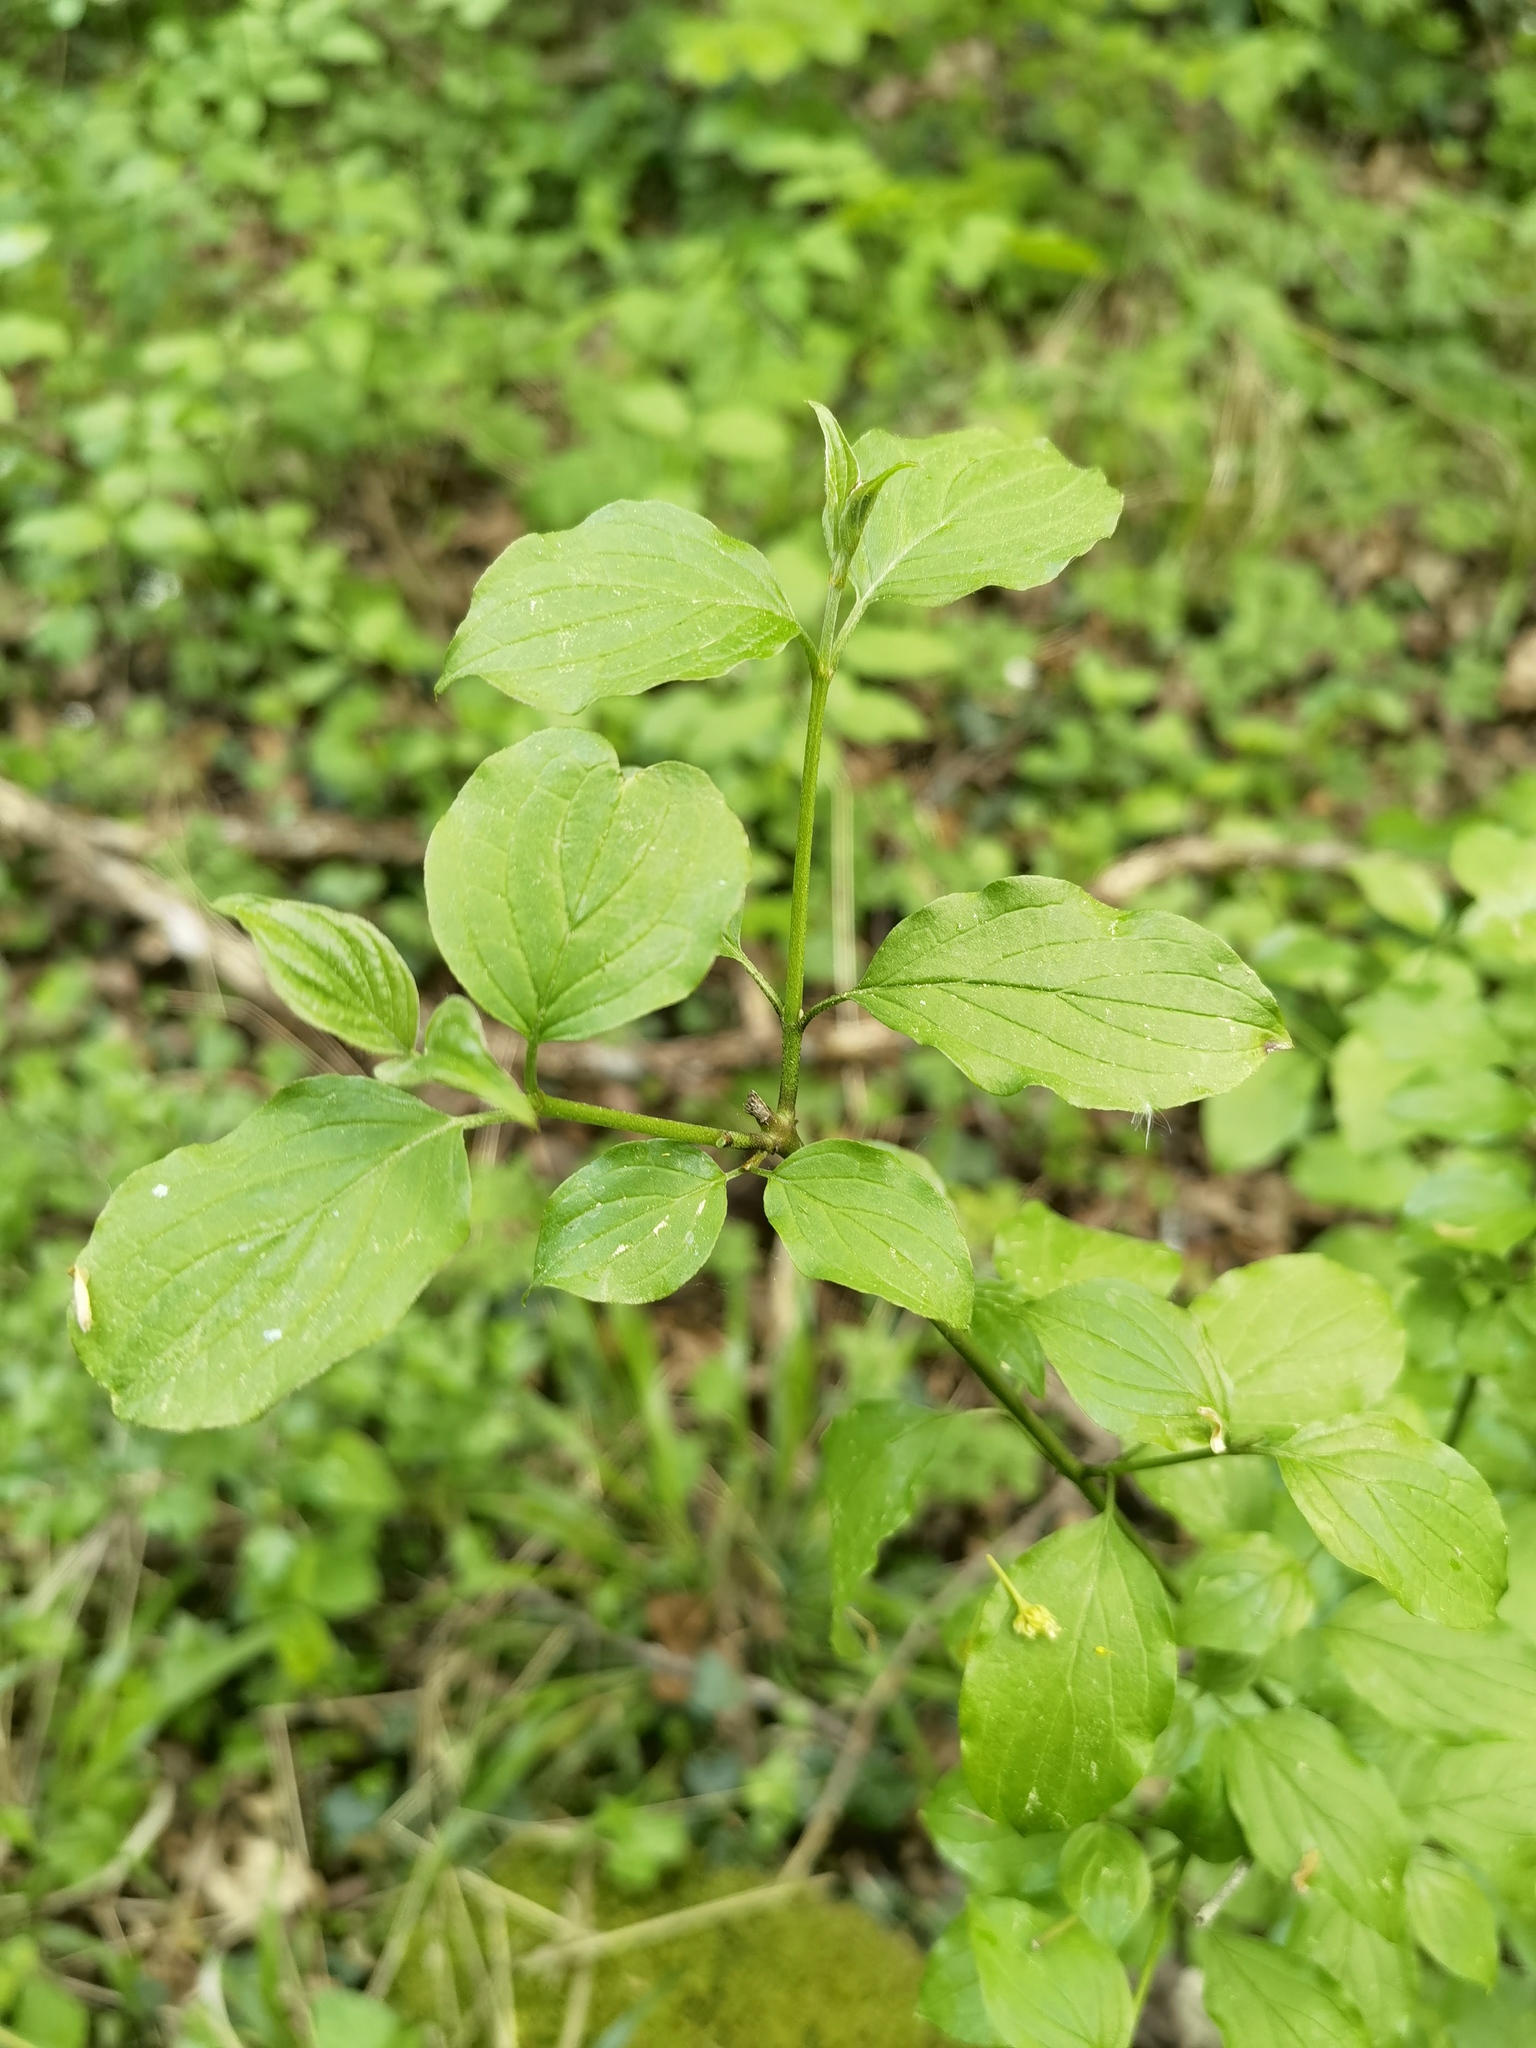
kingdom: Plantae
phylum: Tracheophyta
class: Magnoliopsida
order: Cornales
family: Cornaceae
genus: Cornus
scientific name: Cornus sanguinea
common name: Dogwood
